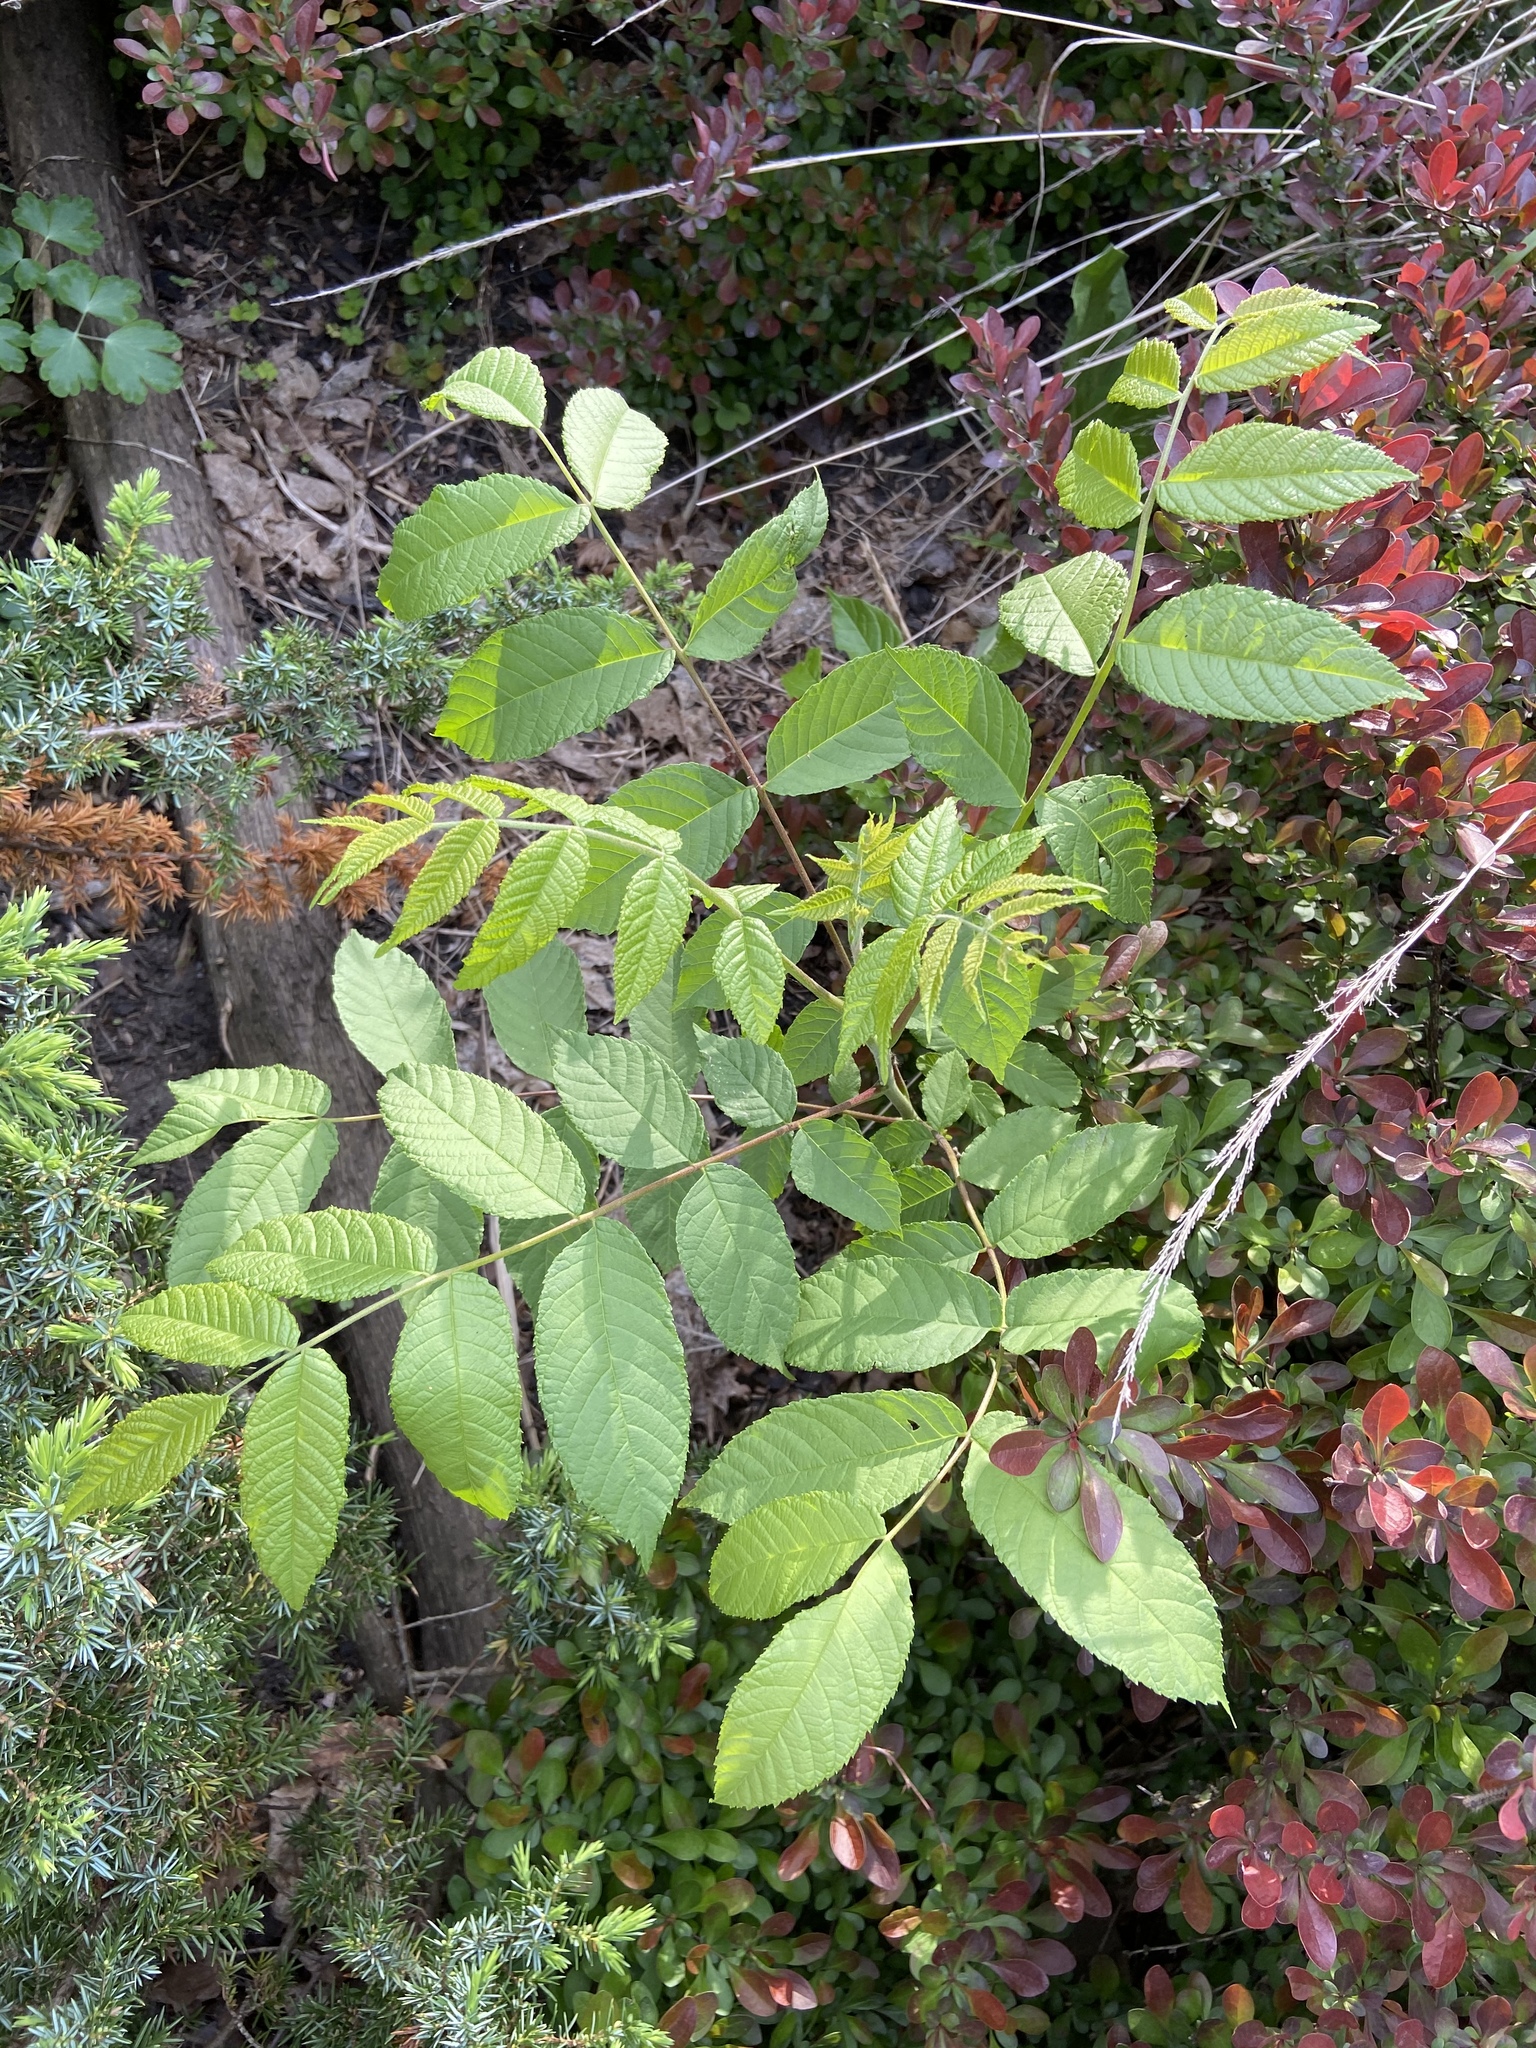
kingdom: Plantae
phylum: Tracheophyta
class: Magnoliopsida
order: Fagales
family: Juglandaceae
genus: Juglans
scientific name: Juglans nigra
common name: Black walnut
